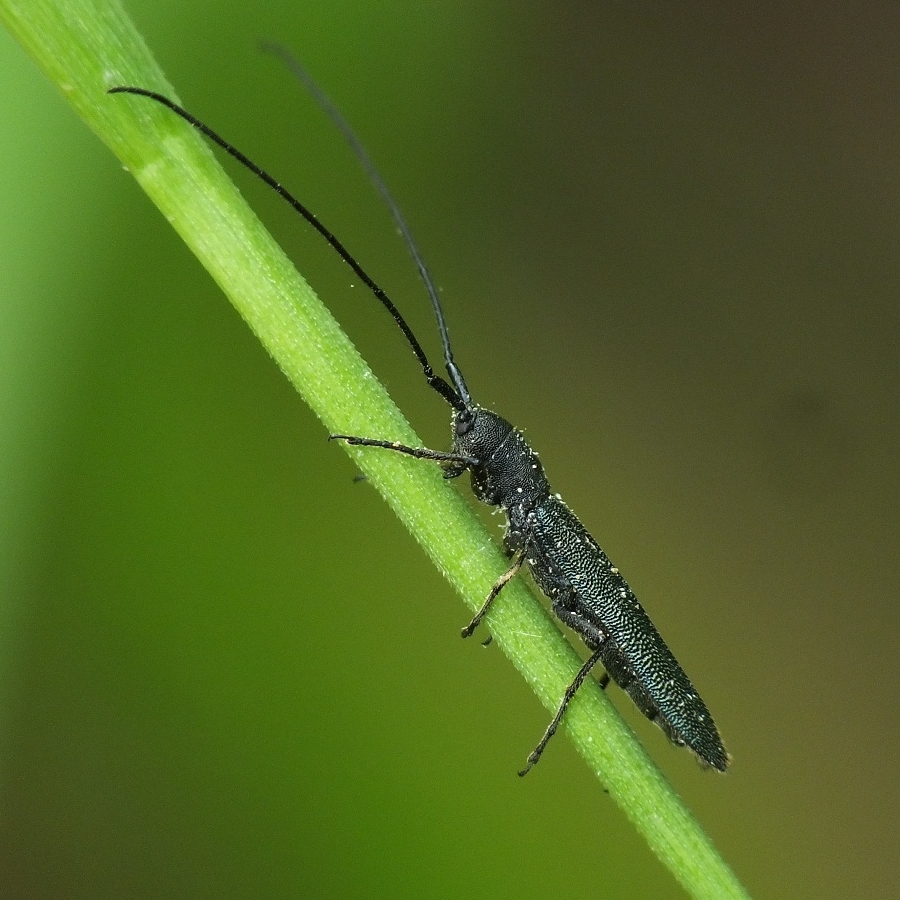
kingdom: Animalia
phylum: Arthropoda
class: Insecta
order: Coleoptera
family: Cerambycidae
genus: Theophilea
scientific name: Theophilea subcylindricollis
